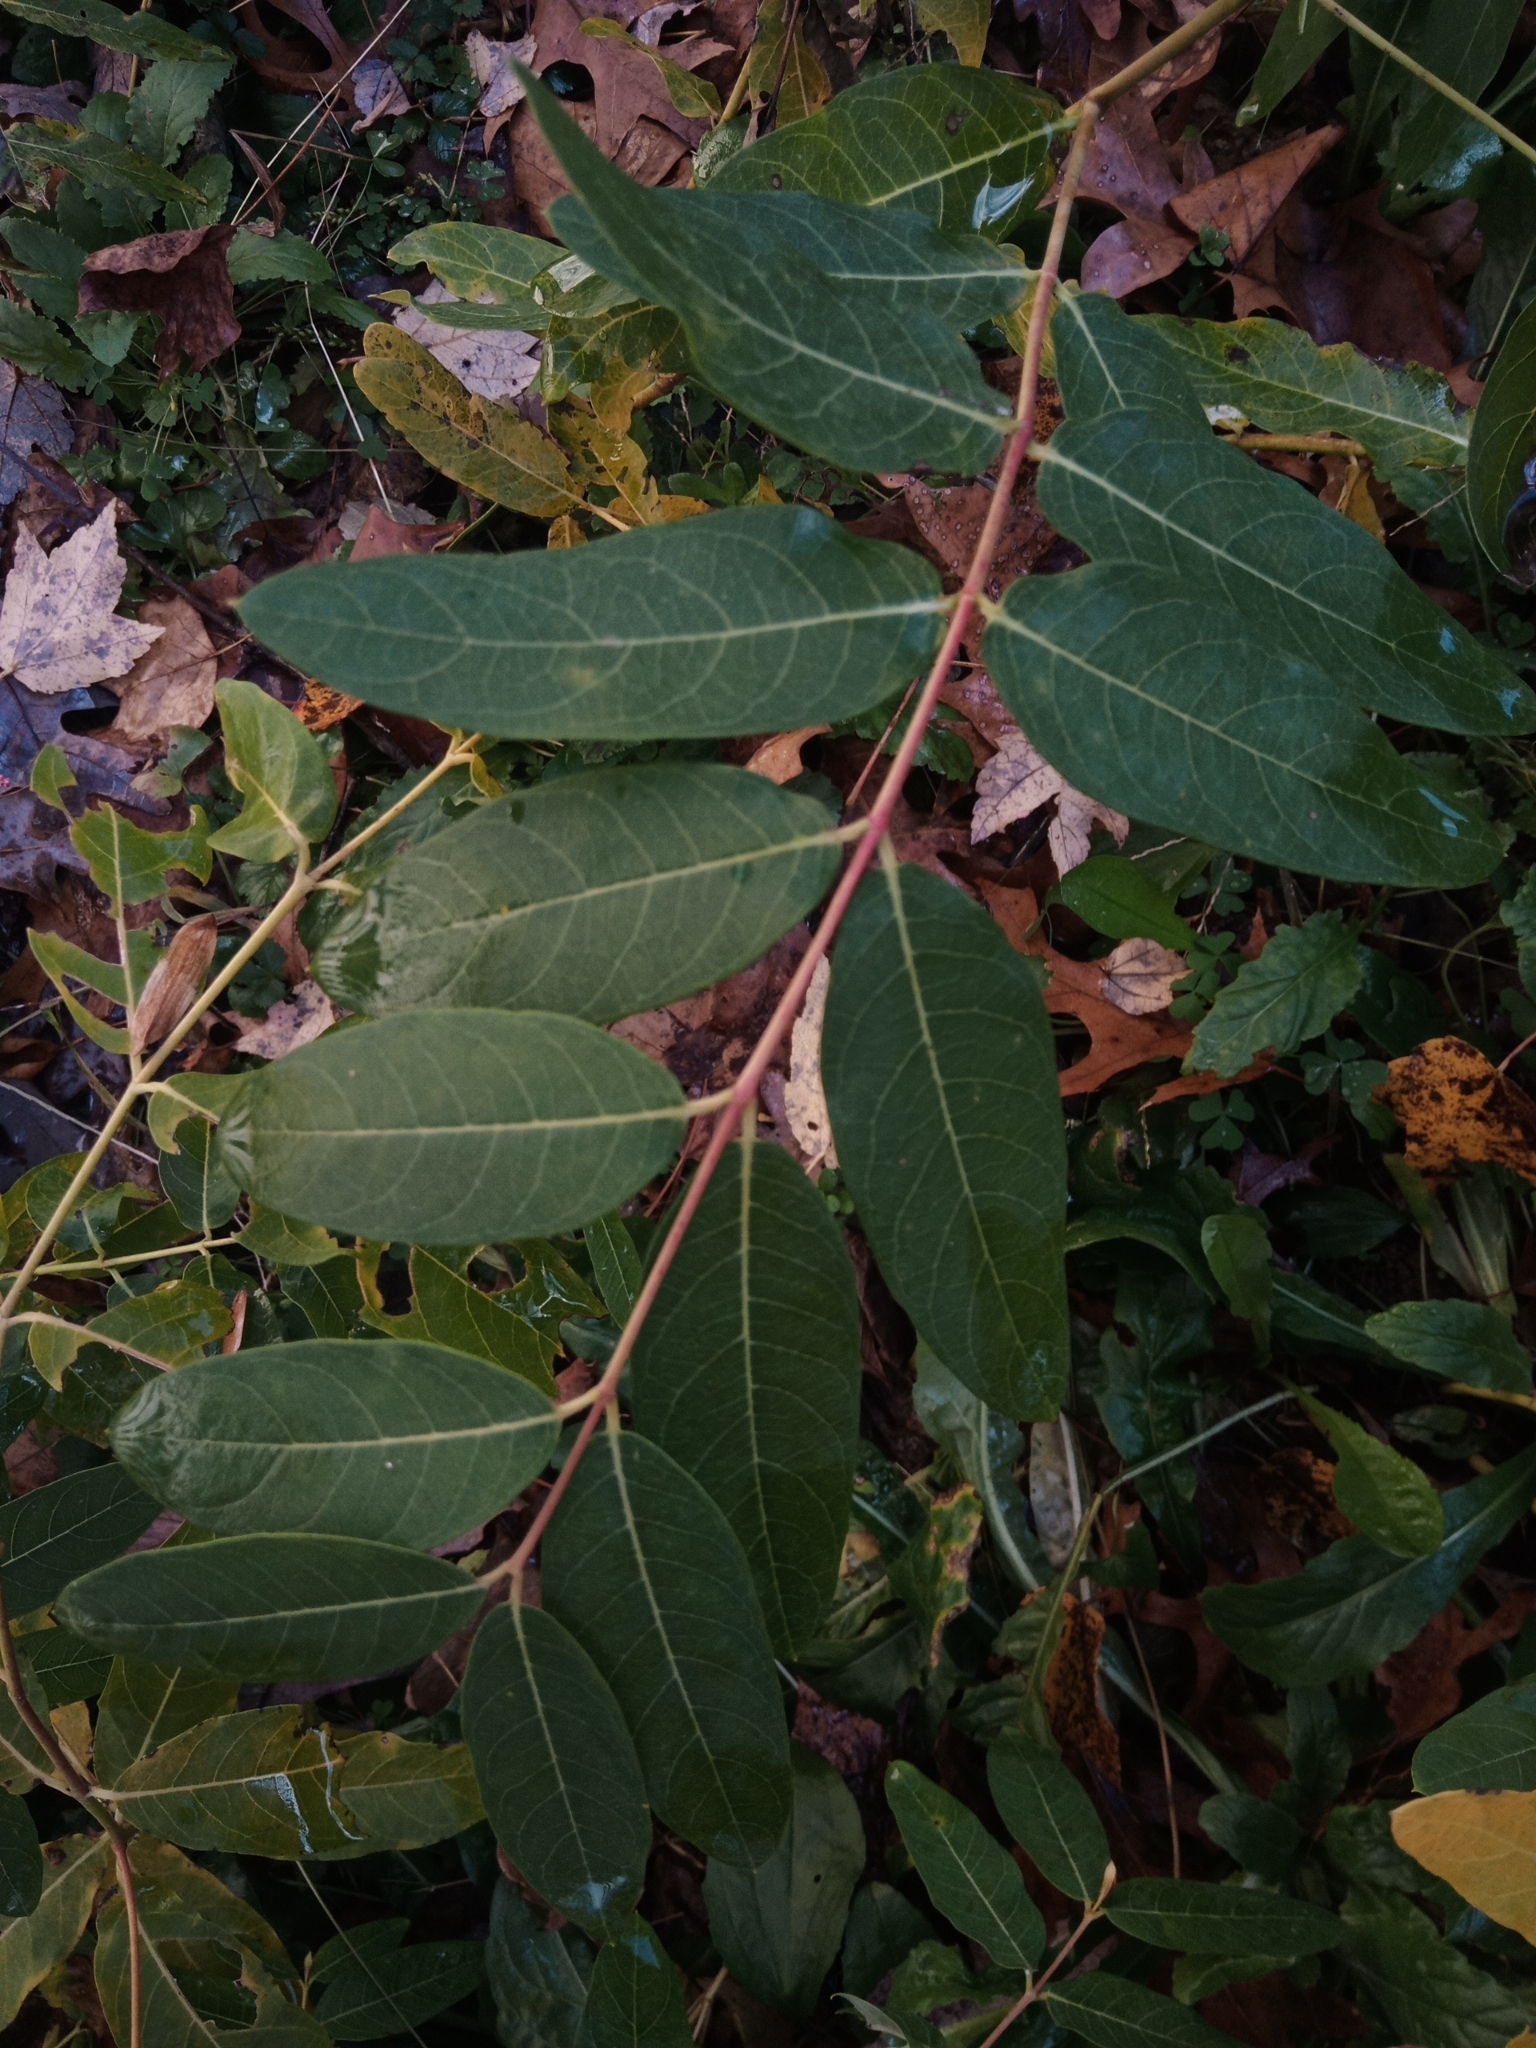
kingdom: Plantae
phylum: Tracheophyta
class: Magnoliopsida
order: Gentianales
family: Apocynaceae
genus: Apocynum
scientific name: Apocynum cannabinum
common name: Hemp dogbane
